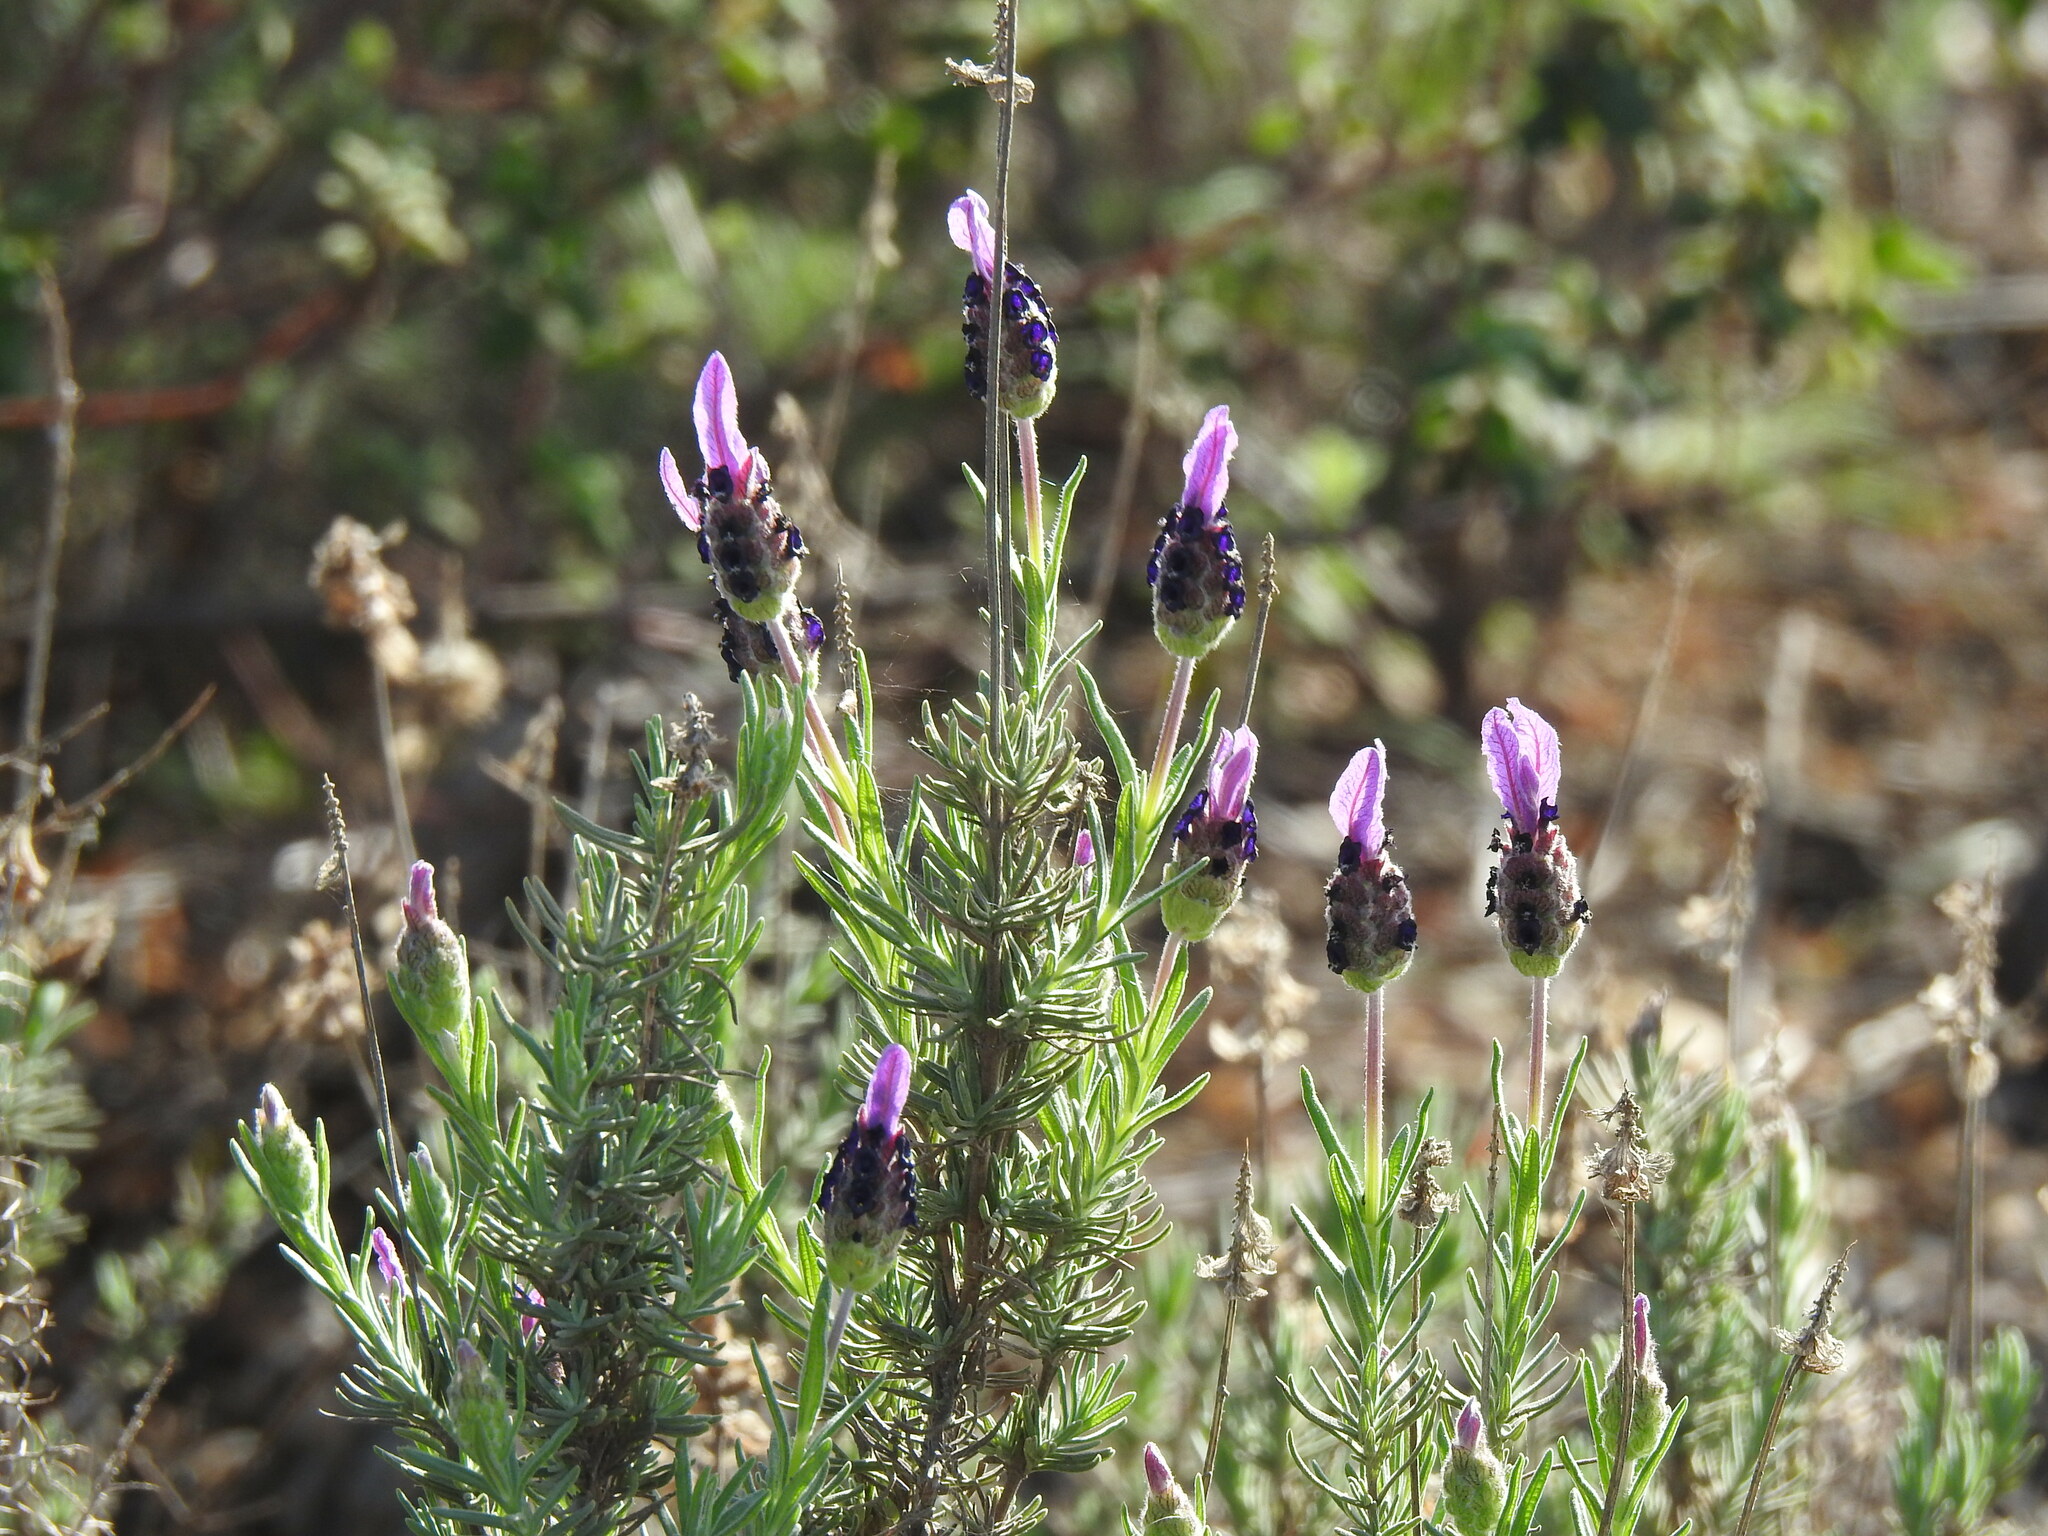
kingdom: Plantae
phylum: Tracheophyta
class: Magnoliopsida
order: Lamiales
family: Lamiaceae
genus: Lavandula
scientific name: Lavandula stoechas
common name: French lavender
